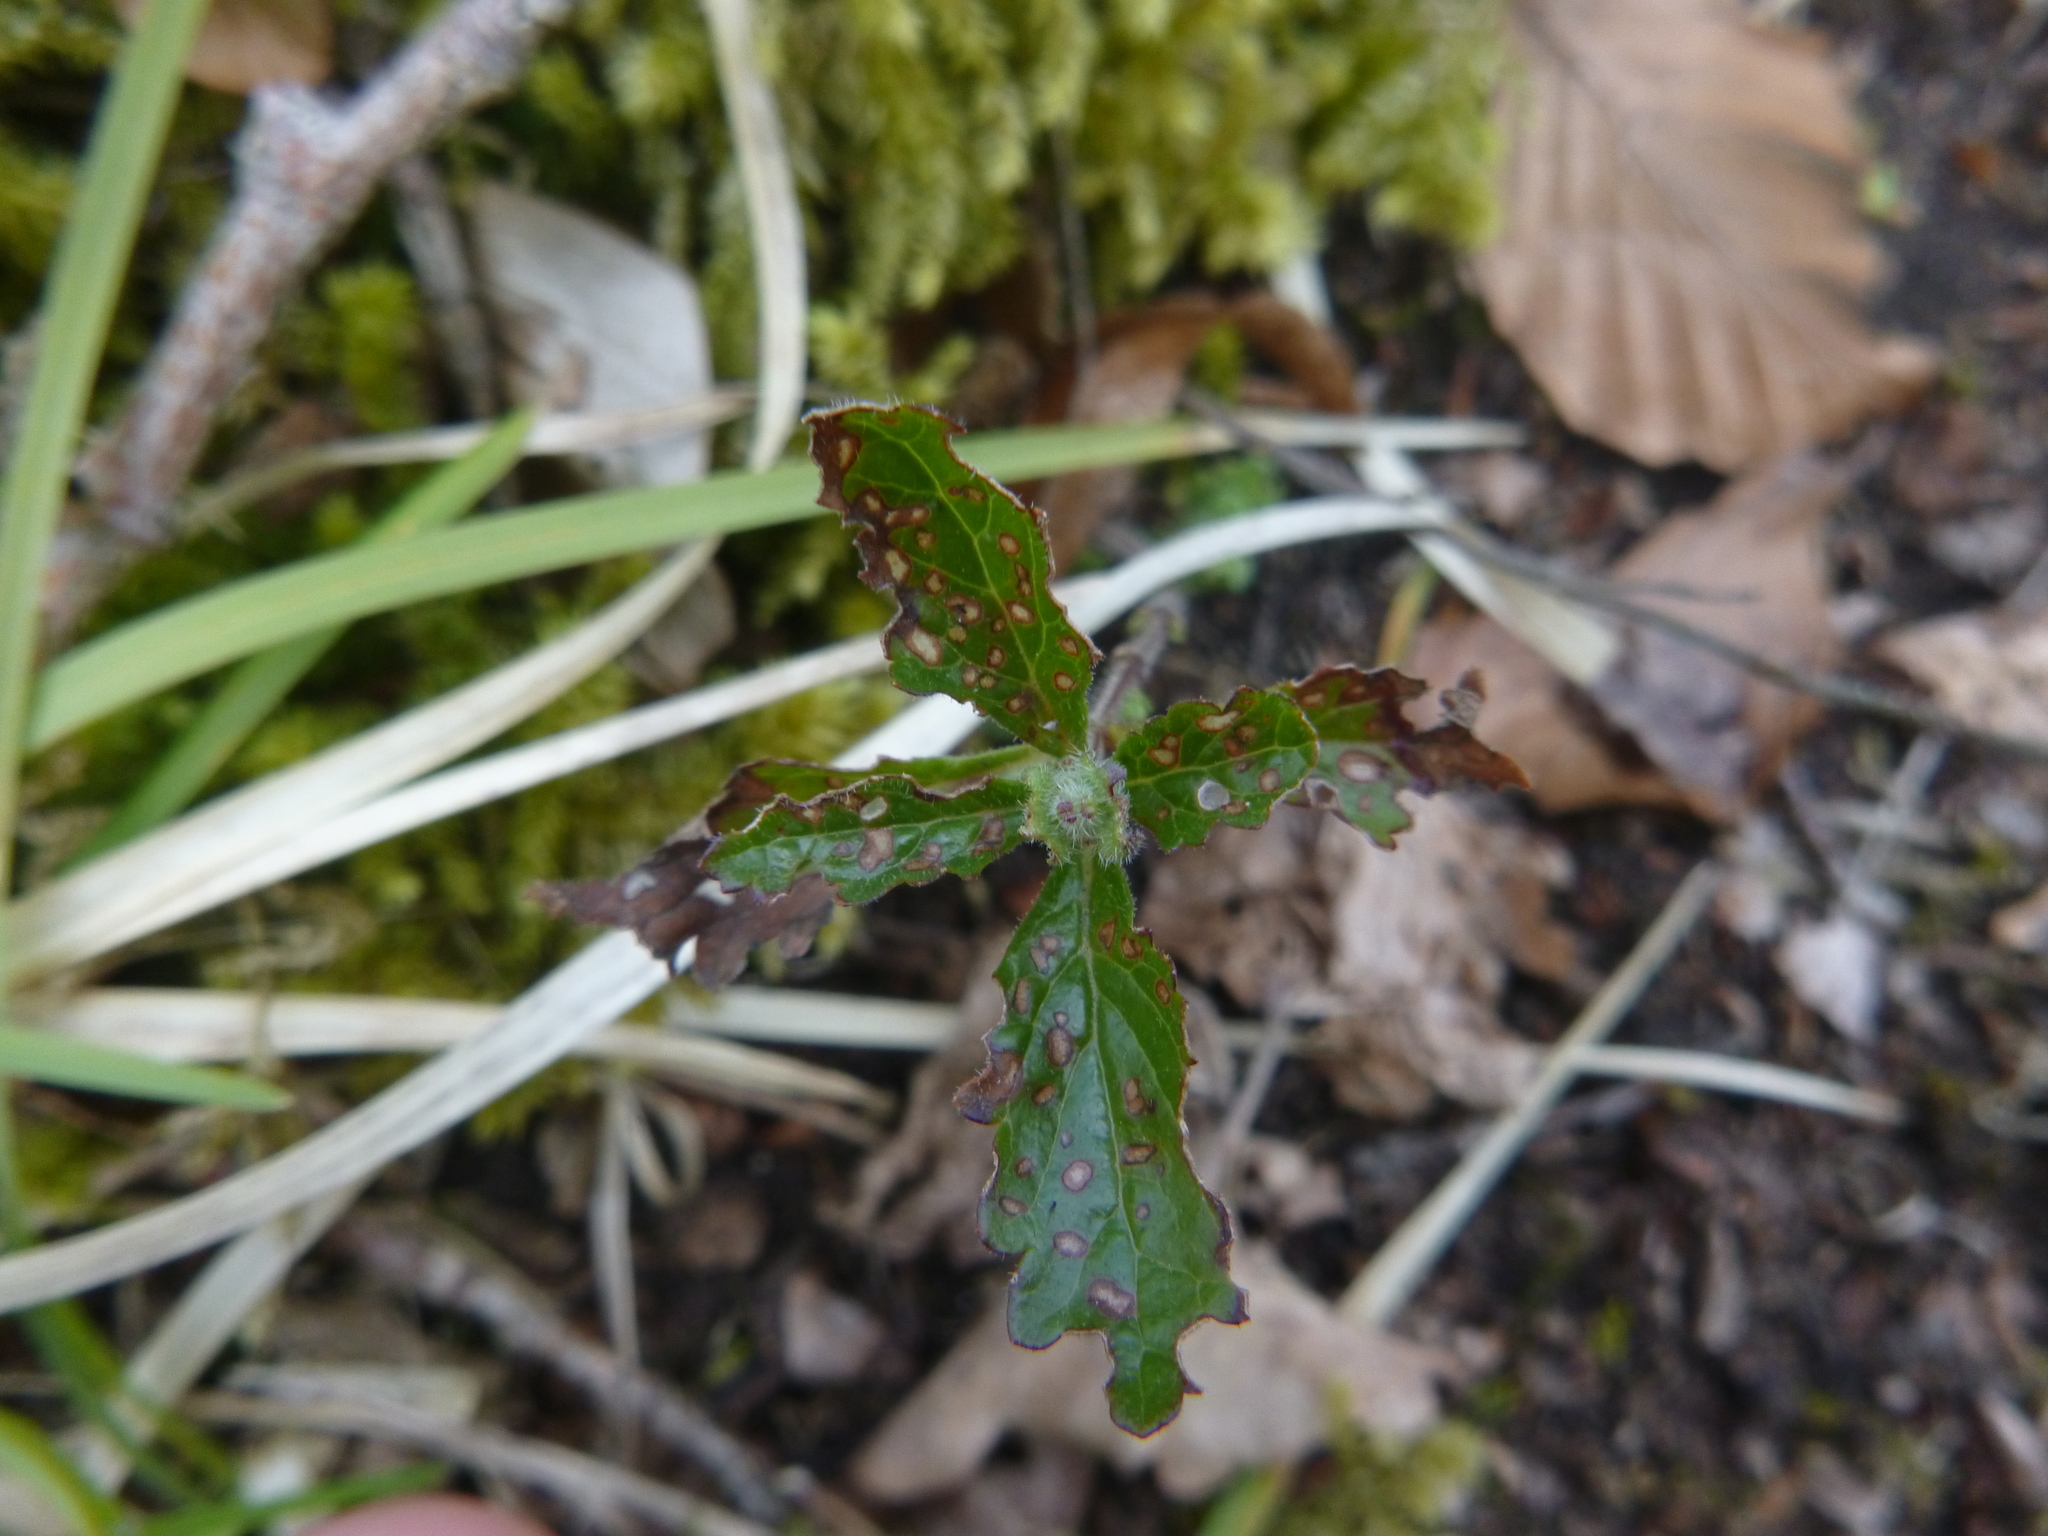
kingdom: Plantae
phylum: Tracheophyta
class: Magnoliopsida
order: Lamiales
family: Lamiaceae
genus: Teucrium
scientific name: Teucrium chamaedrys
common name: Wall germander
